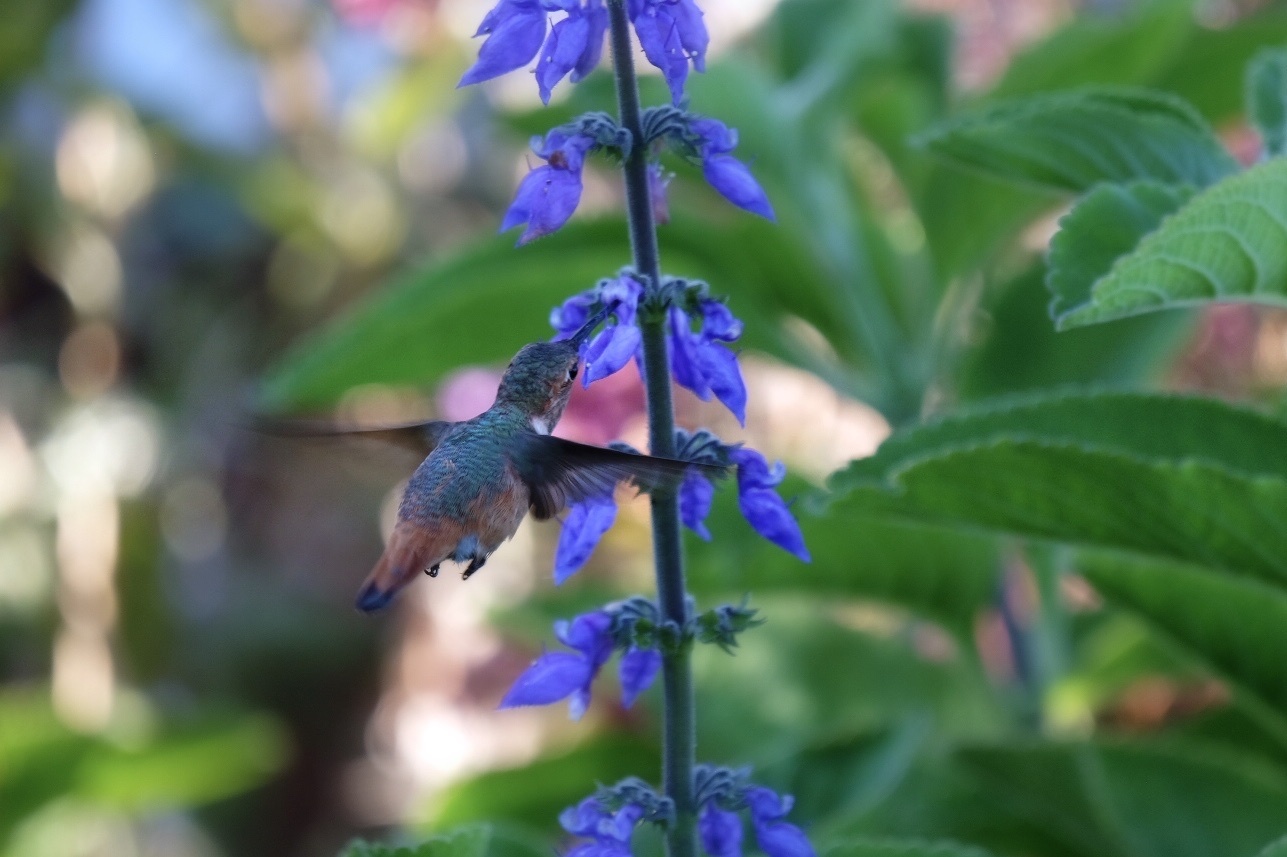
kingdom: Animalia
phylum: Chordata
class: Aves
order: Apodiformes
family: Trochilidae
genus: Selasphorus
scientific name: Selasphorus
